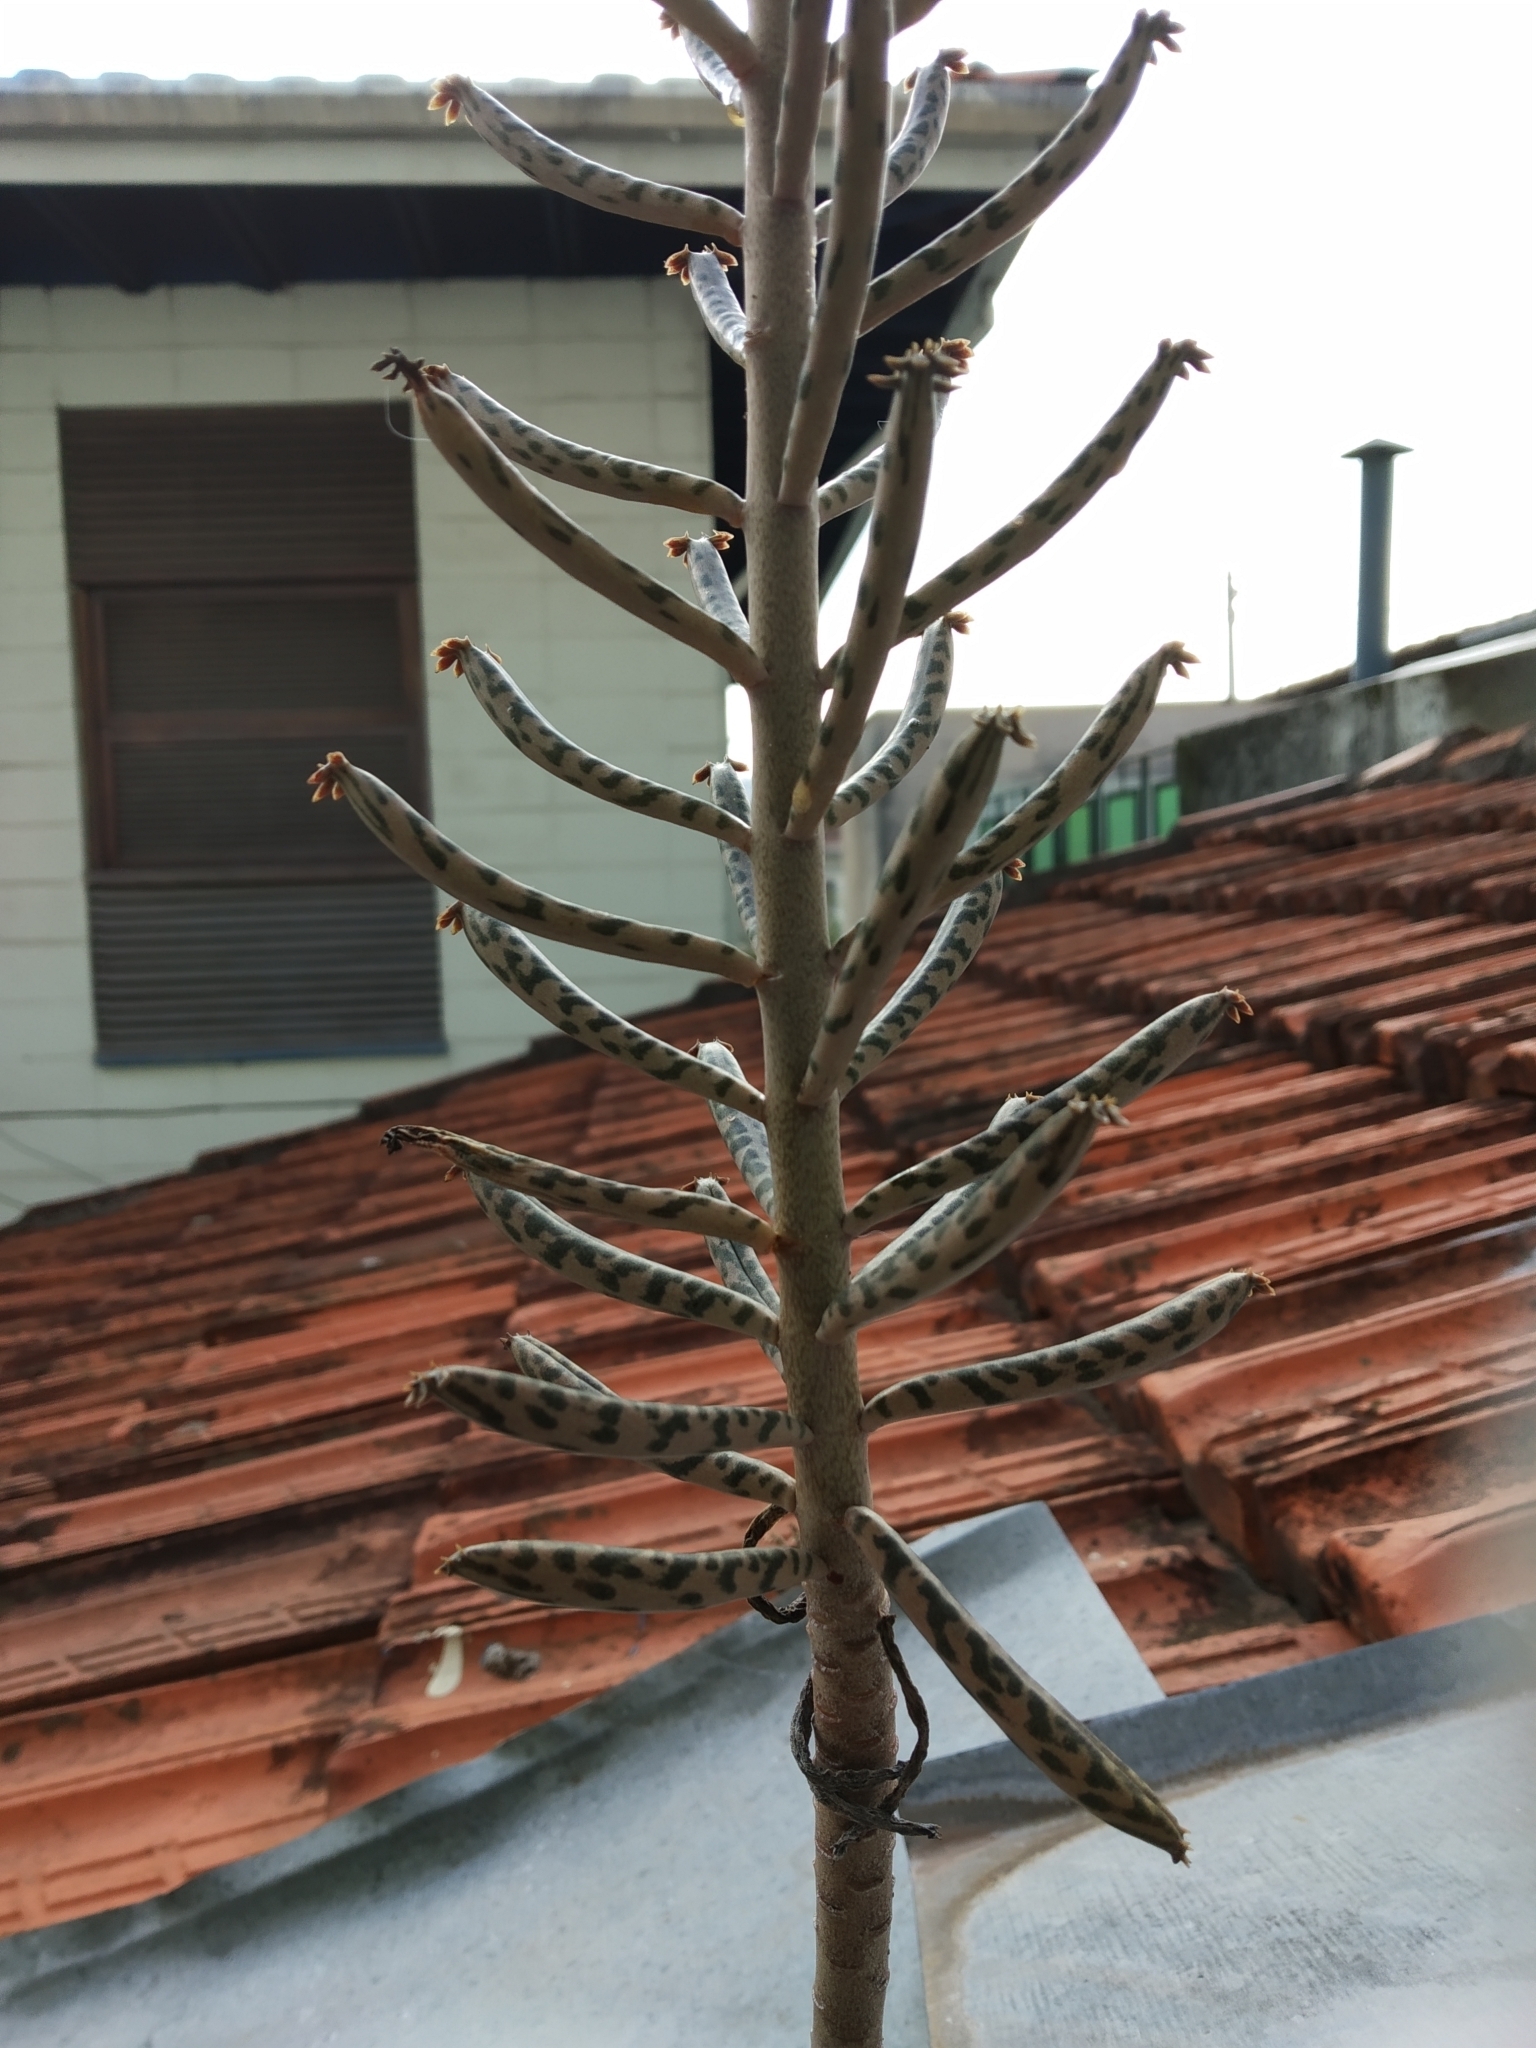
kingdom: Plantae
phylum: Tracheophyta
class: Magnoliopsida
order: Saxifragales
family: Crassulaceae
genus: Kalanchoe
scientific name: Kalanchoe delagoensis
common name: Chandelier plant
